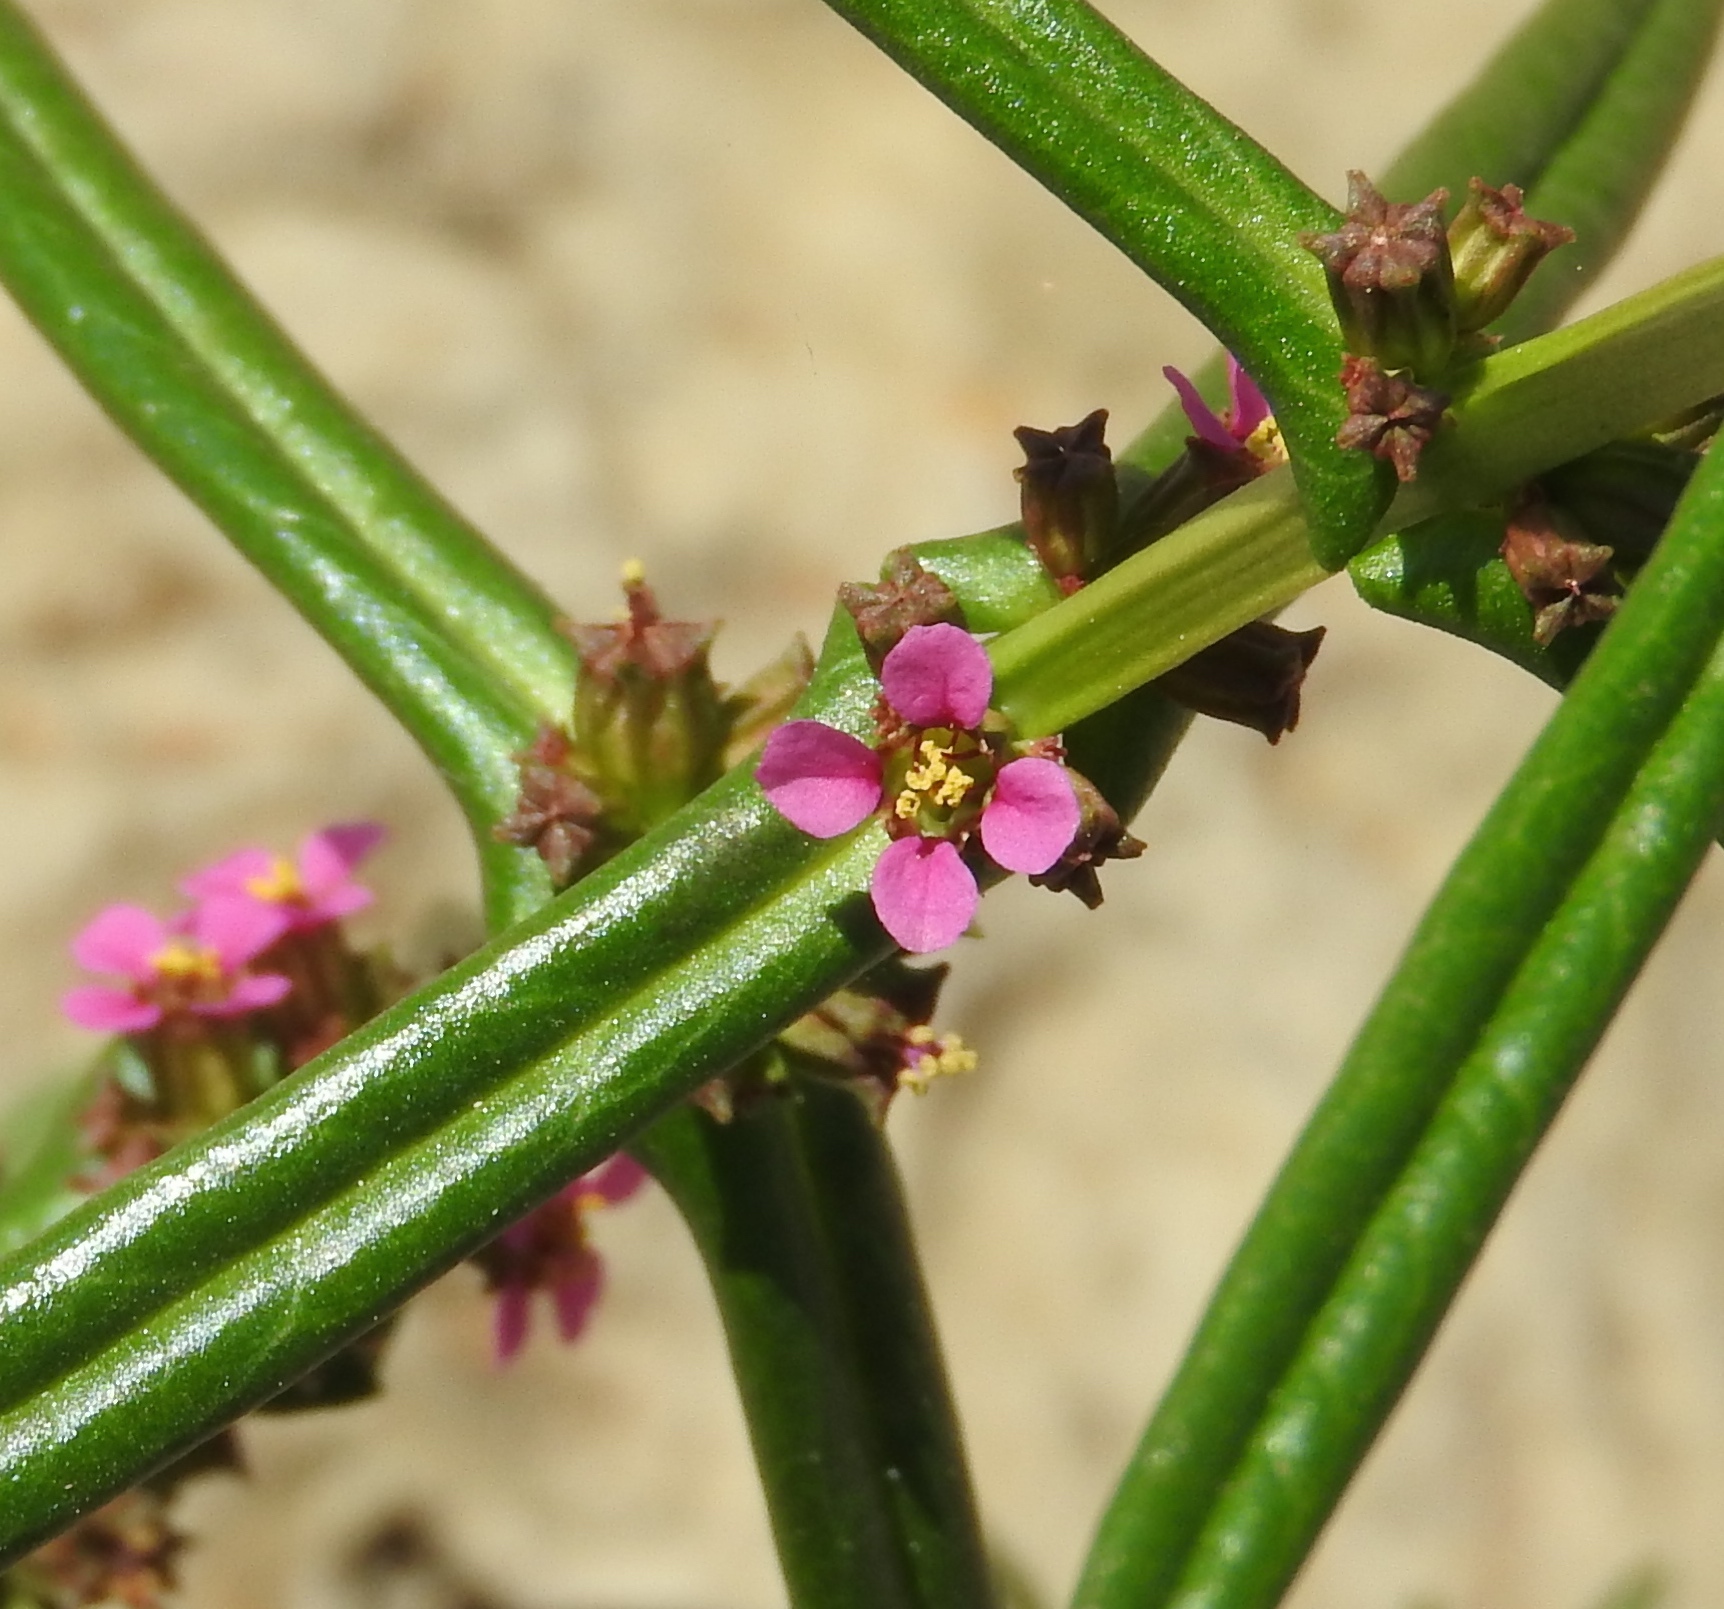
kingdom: Plantae
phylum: Tracheophyta
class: Magnoliopsida
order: Myrtales
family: Lythraceae
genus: Ammannia
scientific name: Ammannia coccinea
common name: Valley redstem
